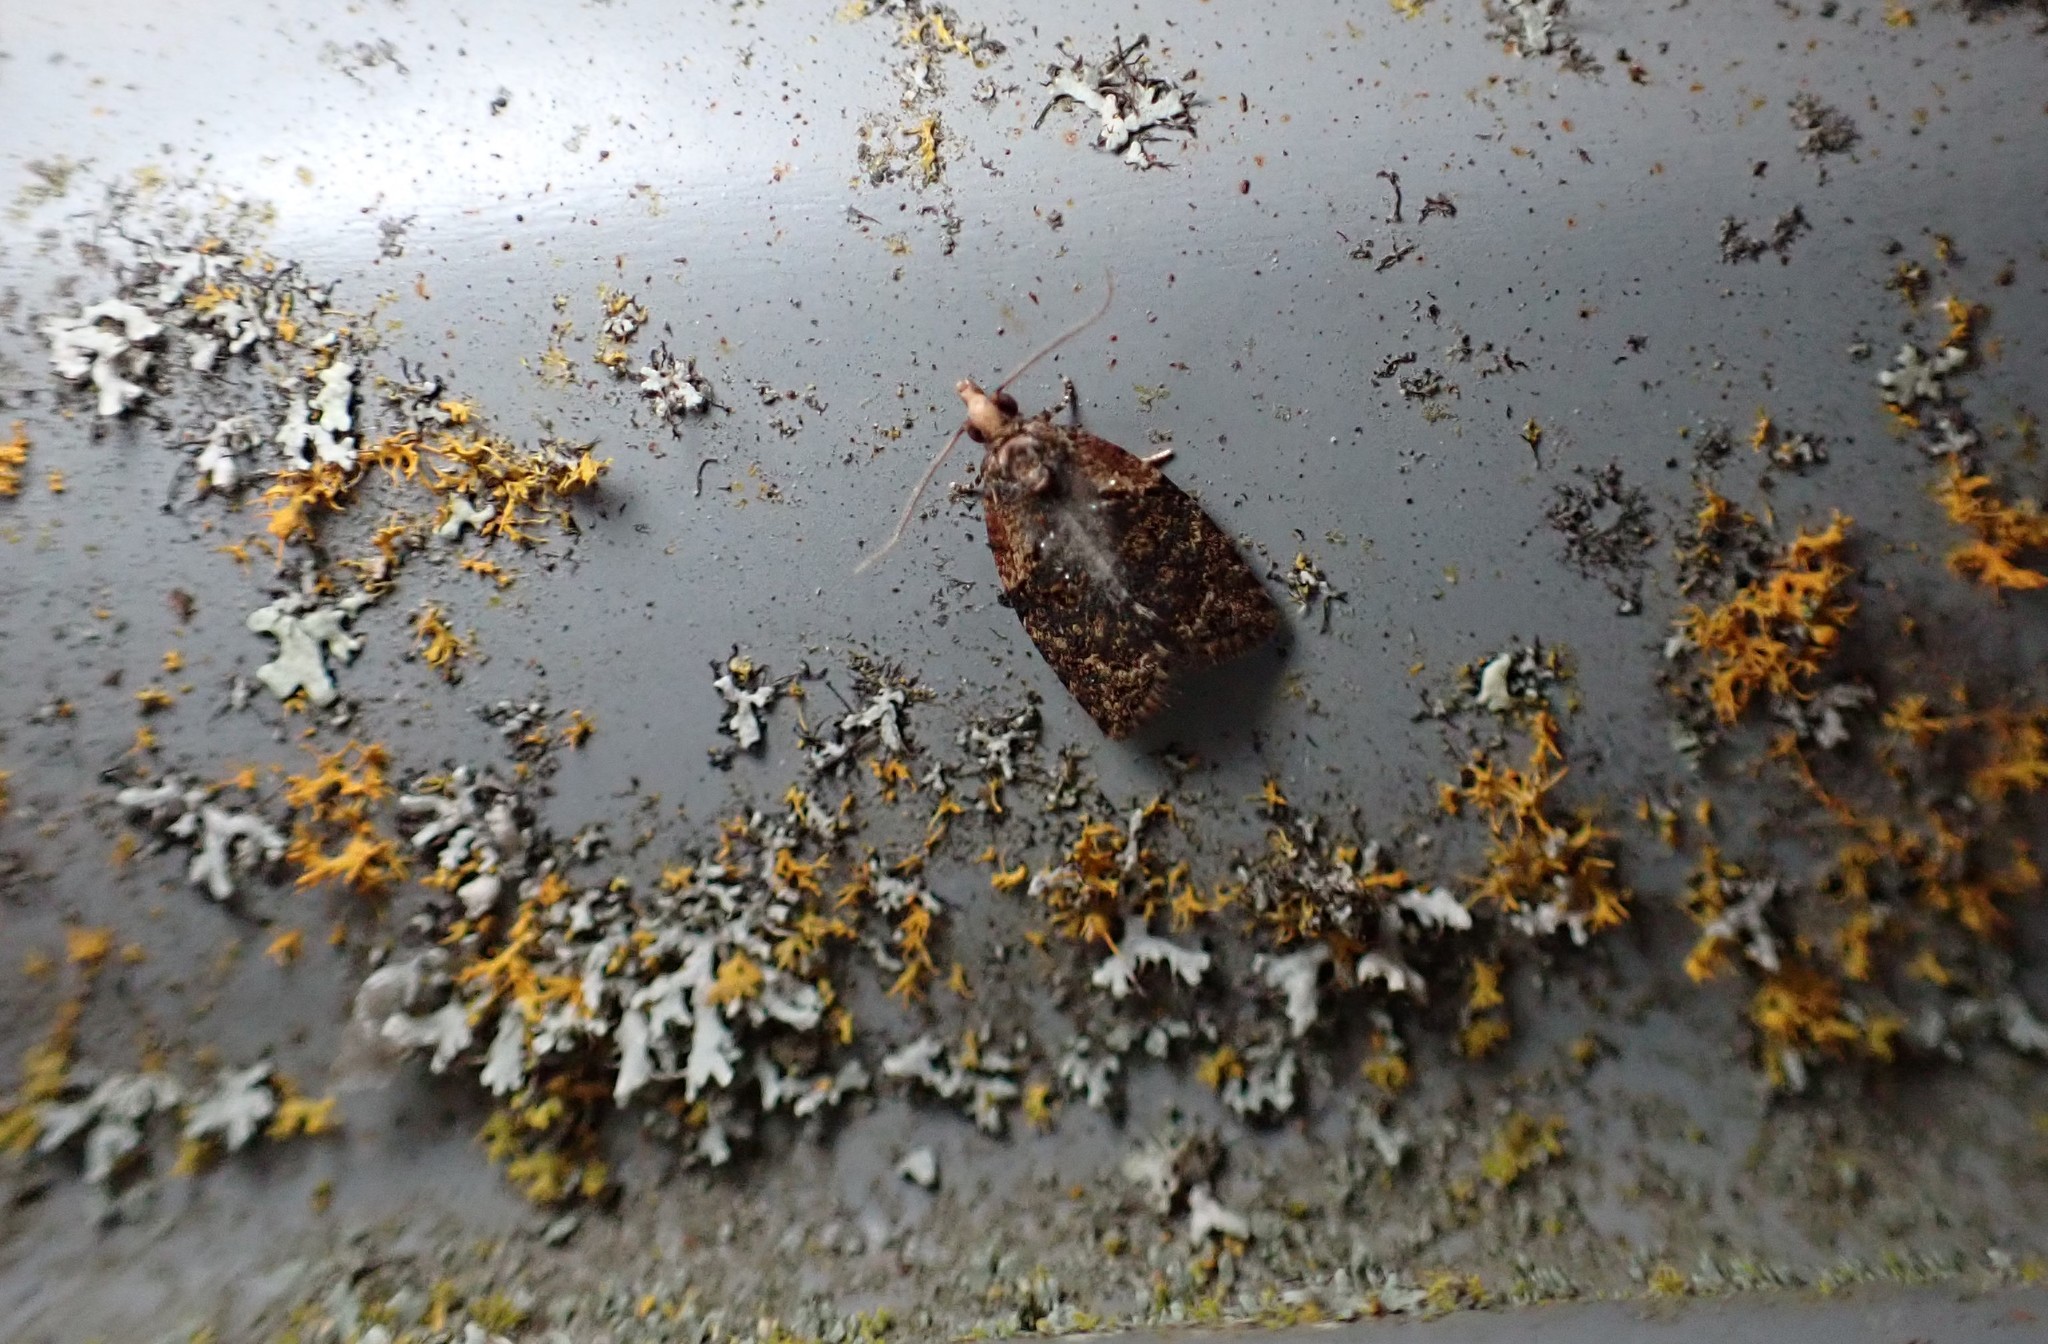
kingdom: Animalia
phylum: Arthropoda
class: Insecta
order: Lepidoptera
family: Tortricidae
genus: Capua
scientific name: Capua intractana
